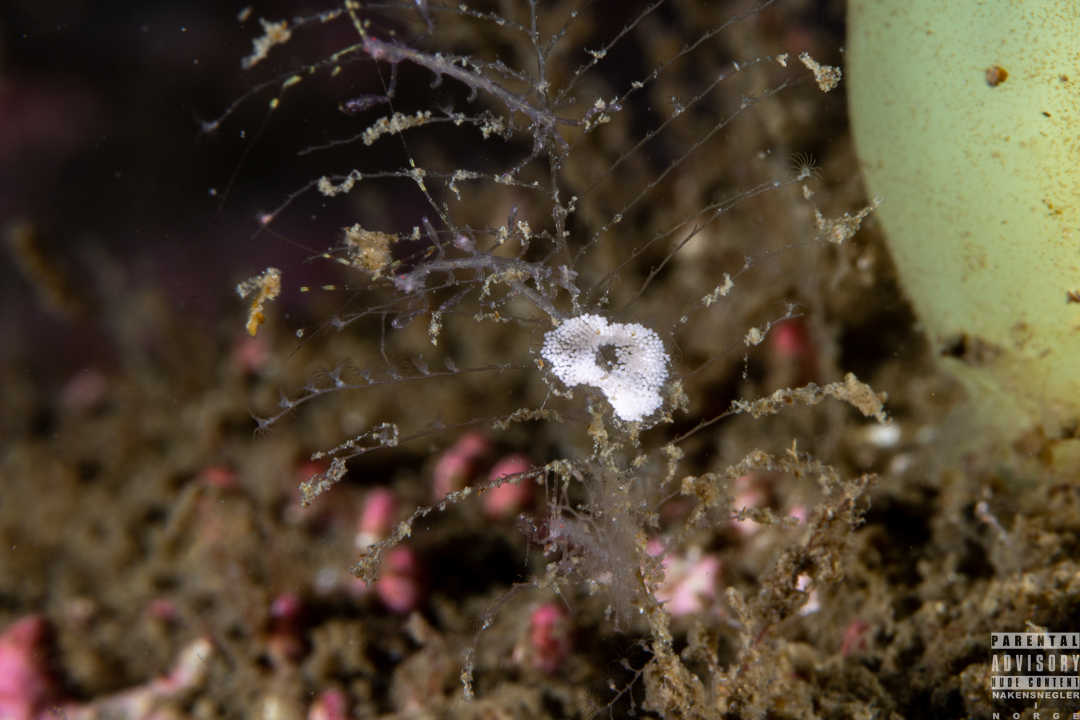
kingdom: Animalia
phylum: Mollusca
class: Gastropoda
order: Nudibranchia
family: Eubranchidae
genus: Eubranchus
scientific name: Eubranchus vittatus
